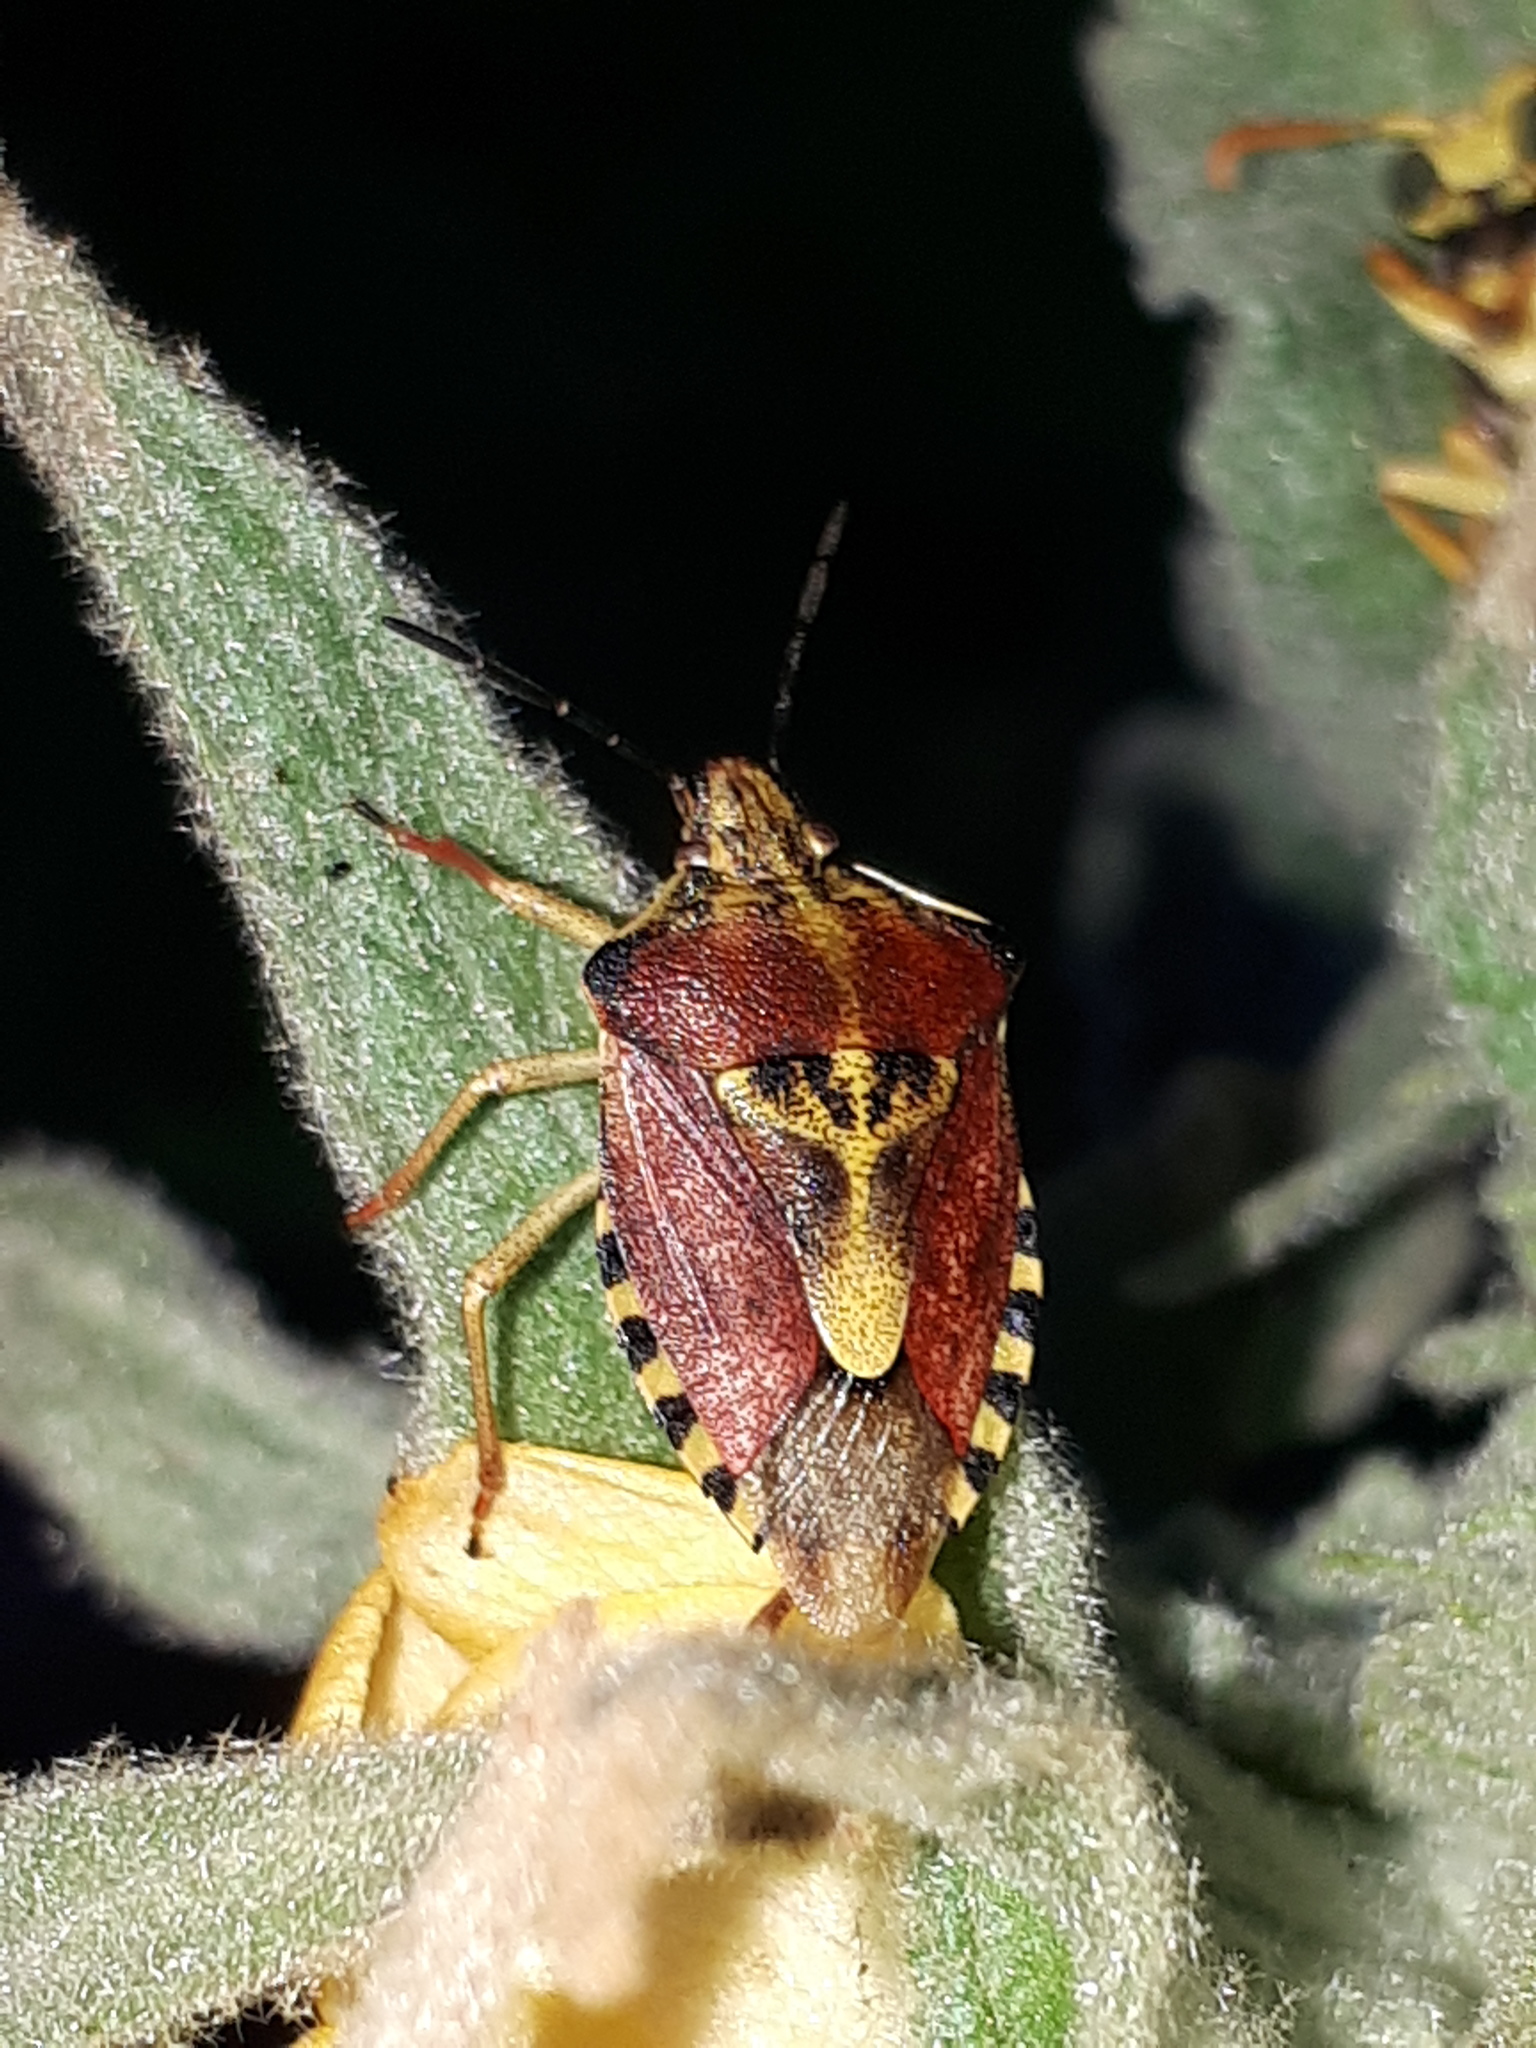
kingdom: Animalia
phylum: Arthropoda
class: Insecta
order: Hemiptera
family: Pentatomidae
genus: Carpocoris
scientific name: Carpocoris purpureipennis
